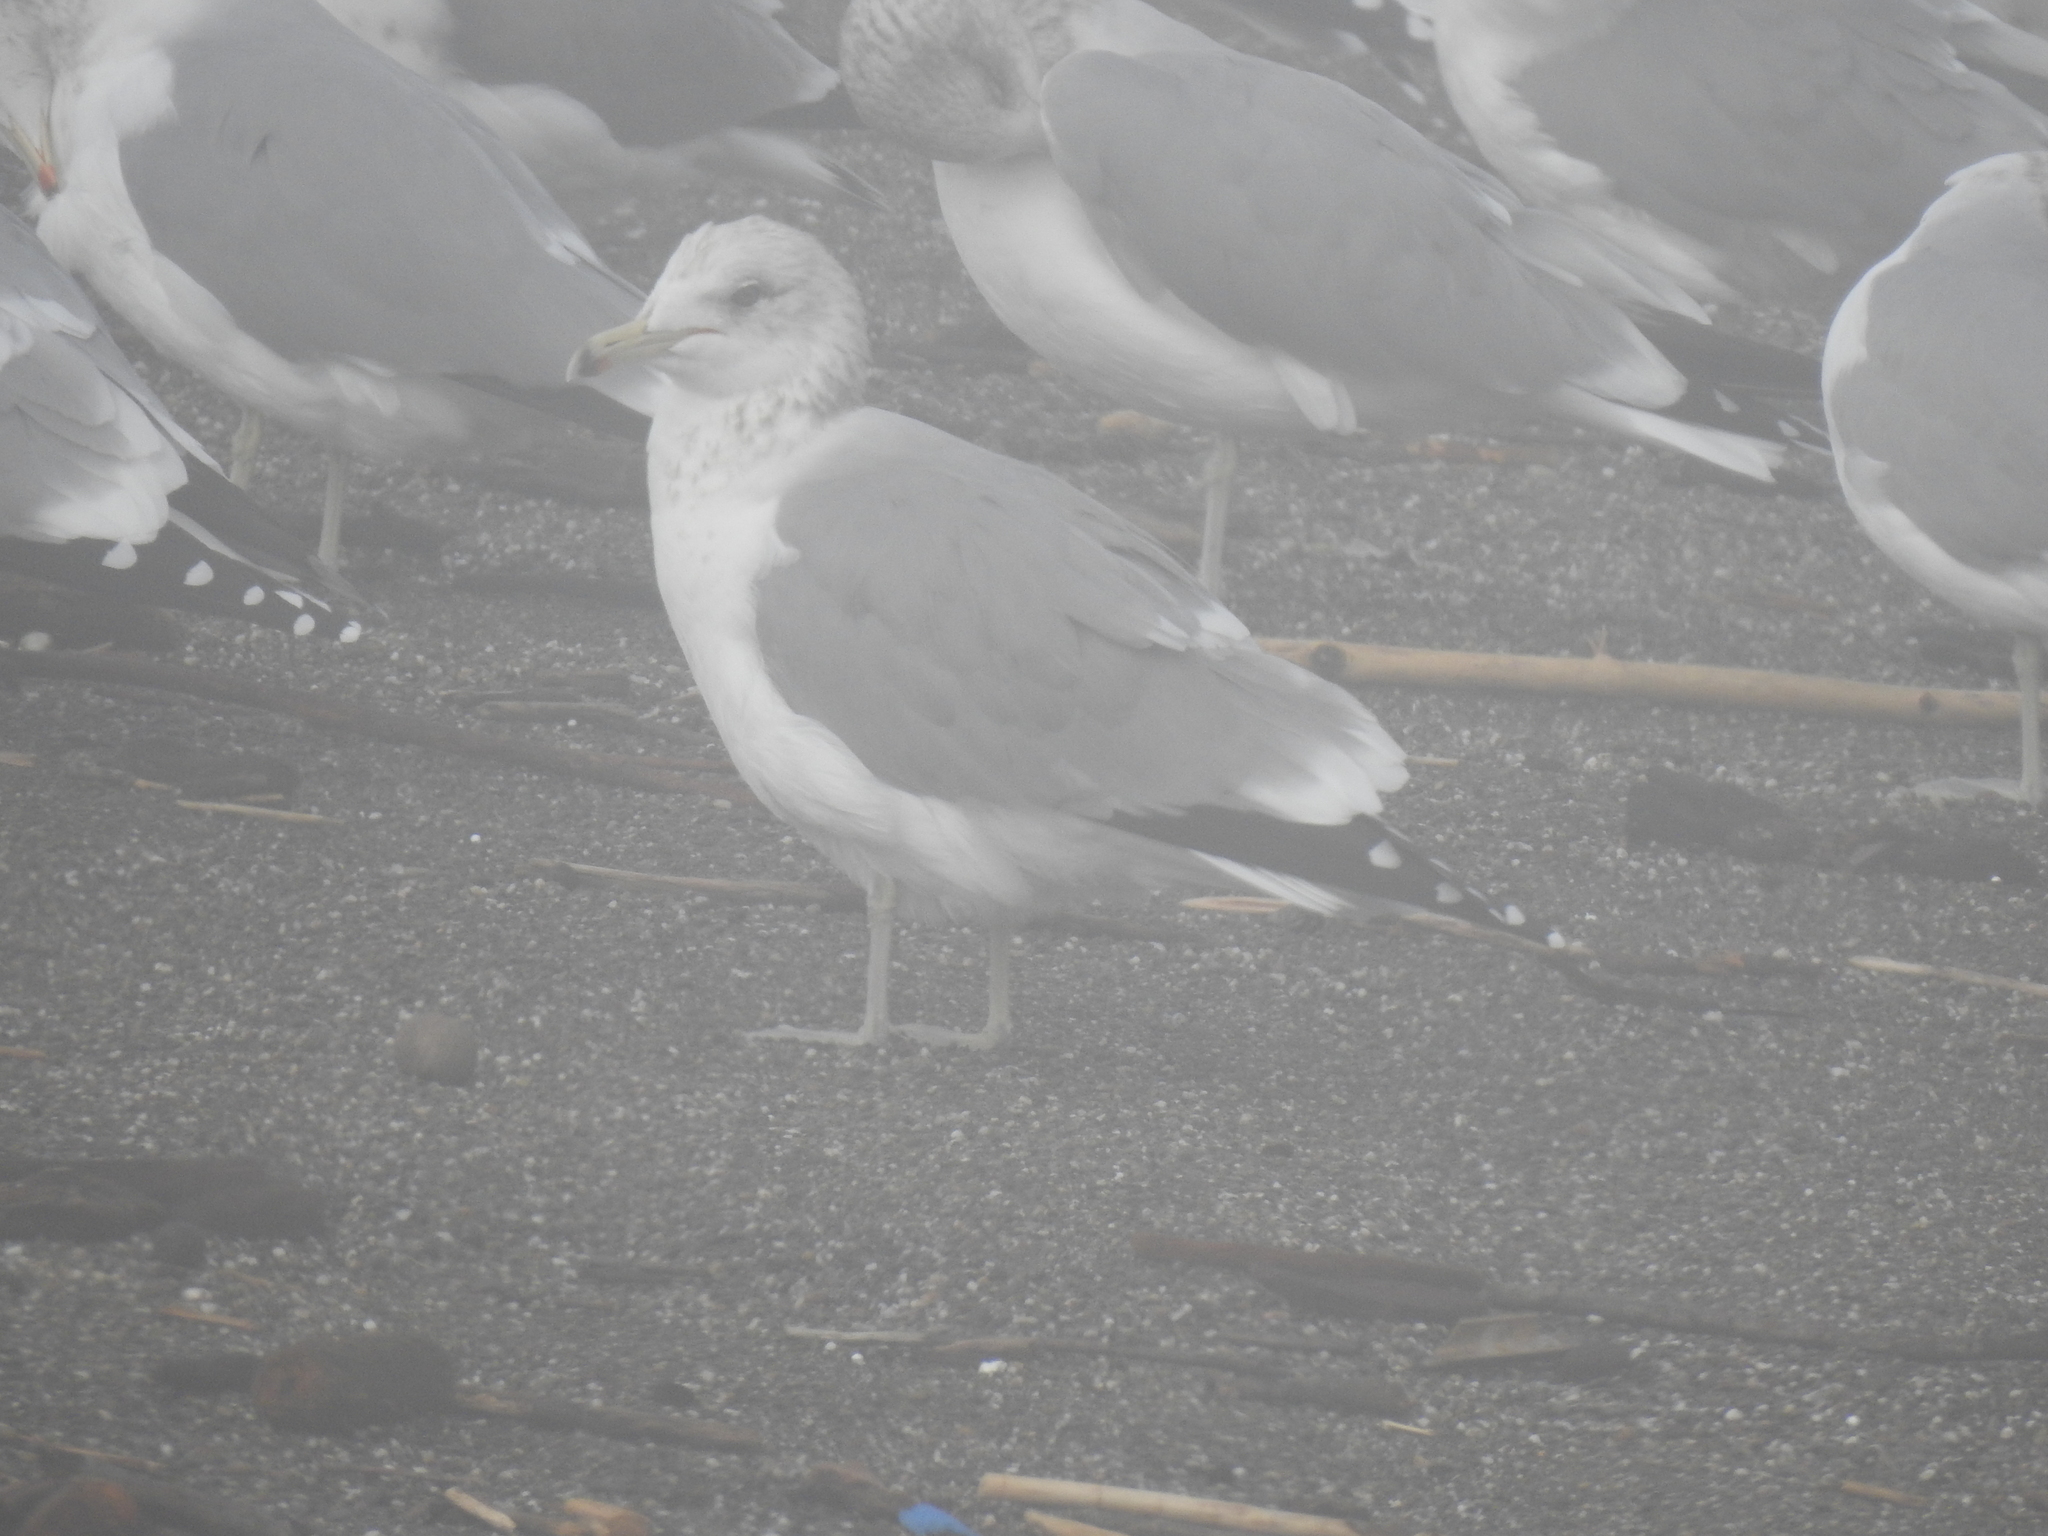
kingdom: Animalia
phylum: Chordata
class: Aves
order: Charadriiformes
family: Laridae
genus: Larus
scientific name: Larus californicus
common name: California gull
